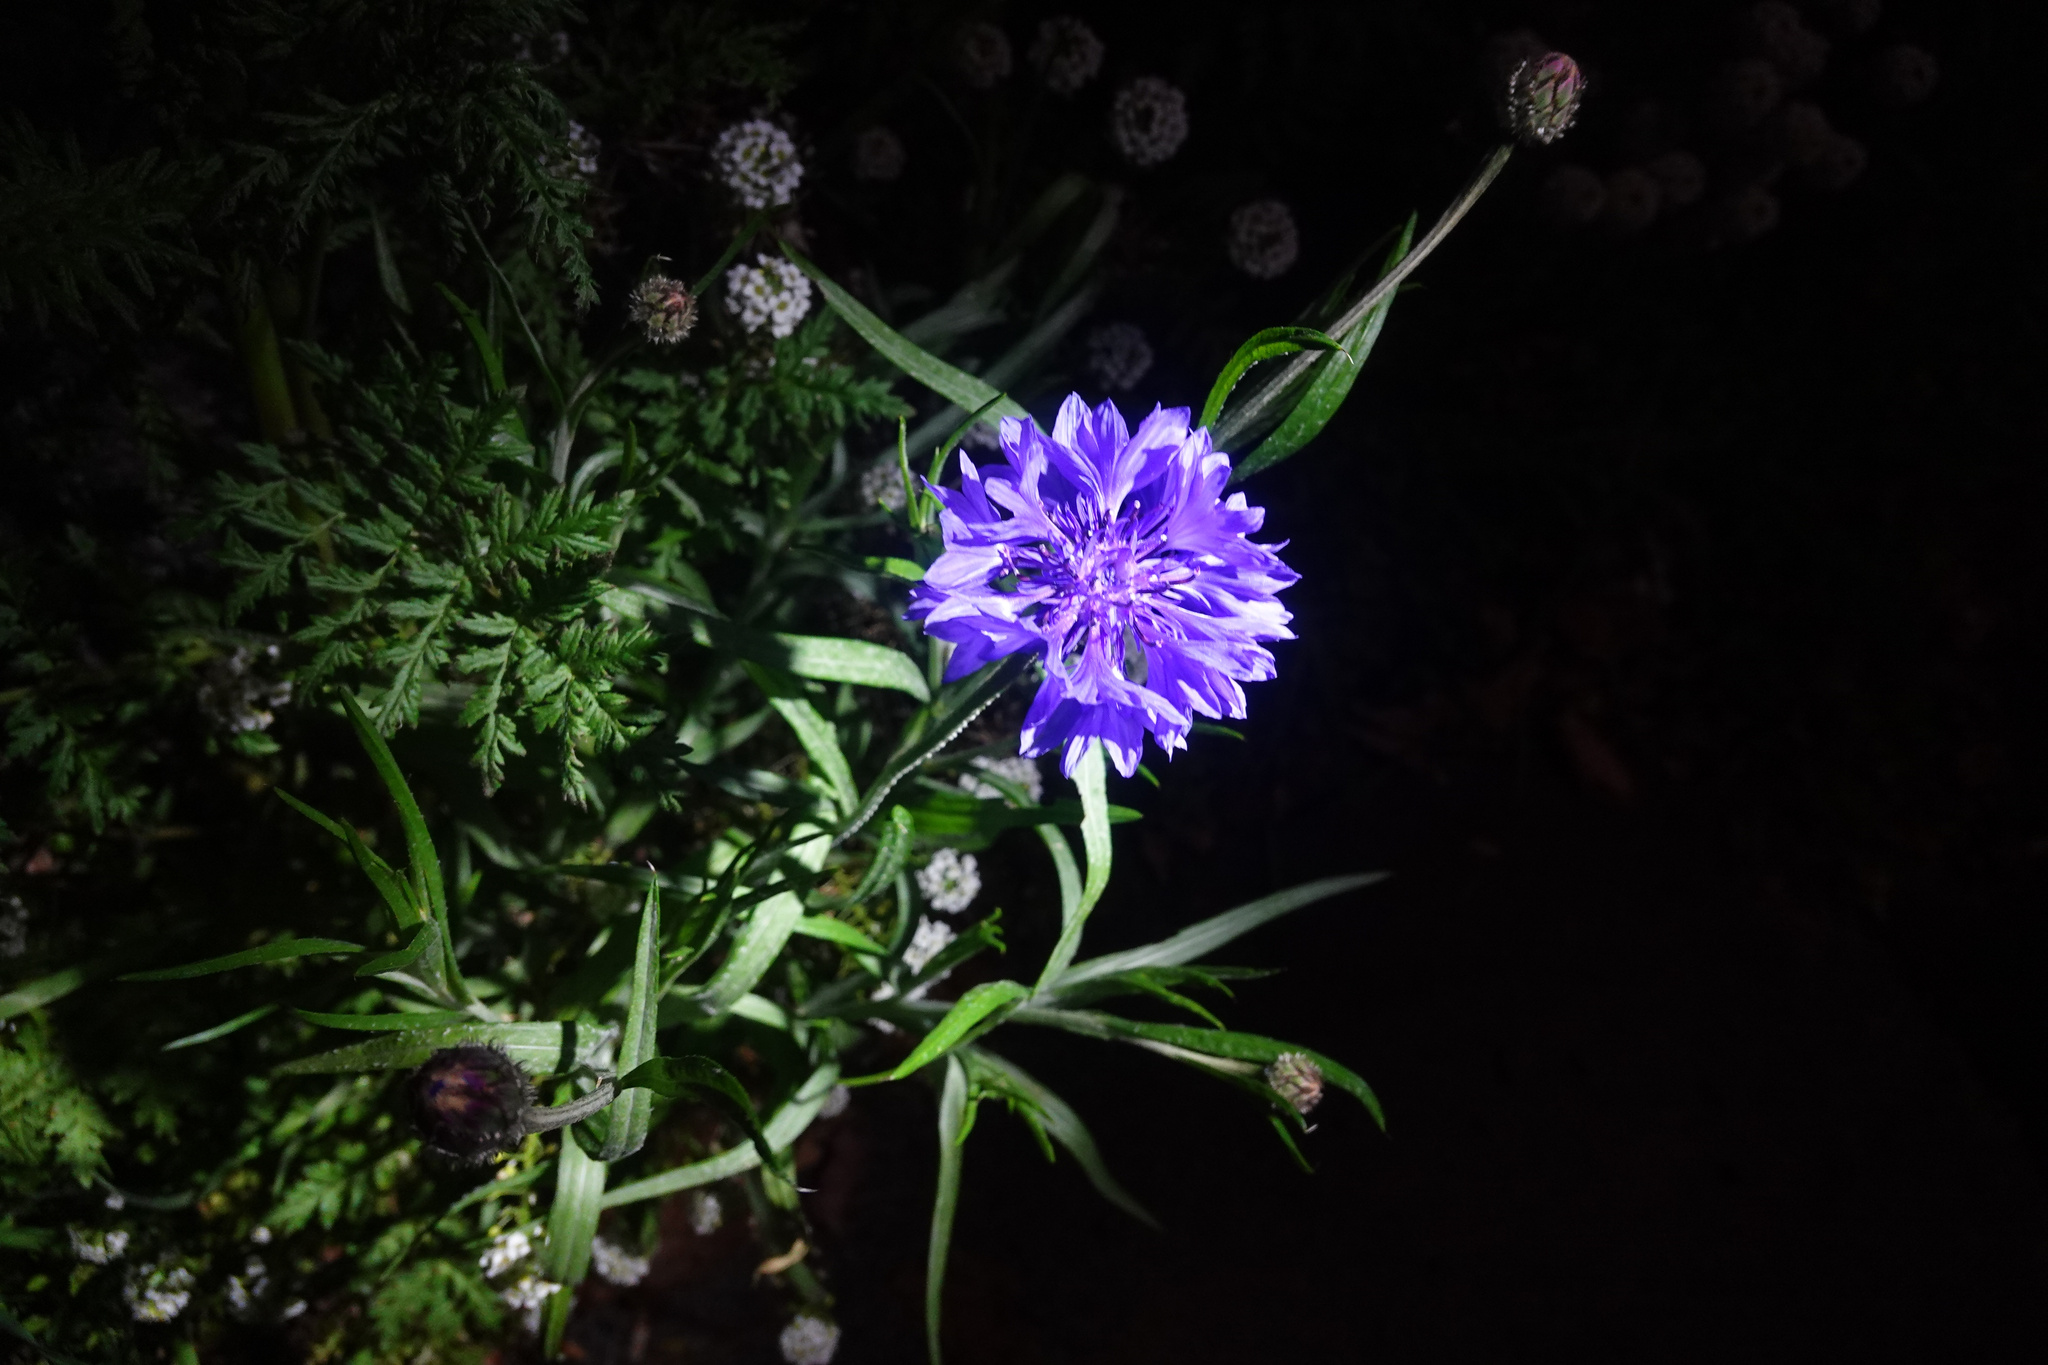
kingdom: Plantae
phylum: Tracheophyta
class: Magnoliopsida
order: Asterales
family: Asteraceae
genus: Centaurea
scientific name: Centaurea cyanus
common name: Cornflower
